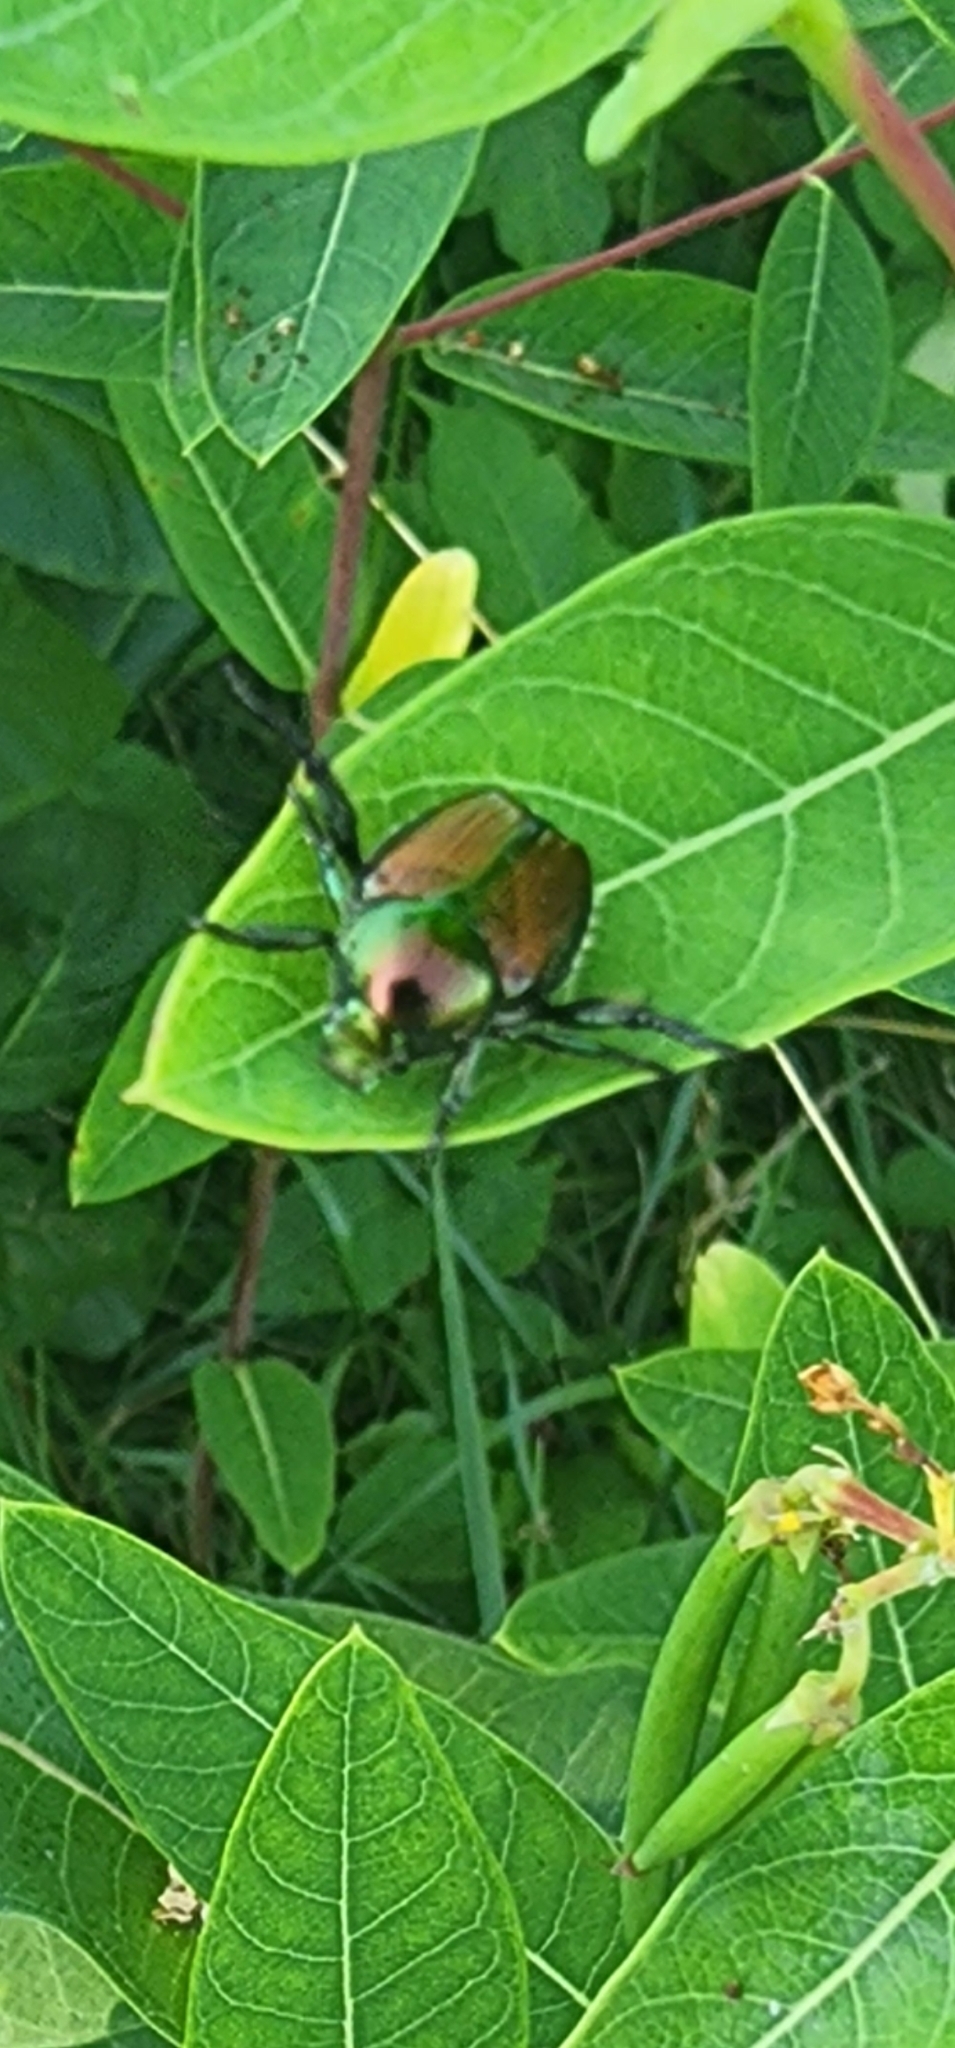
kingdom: Animalia
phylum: Arthropoda
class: Insecta
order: Coleoptera
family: Scarabaeidae
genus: Popillia
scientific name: Popillia japonica
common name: Japanese beetle
